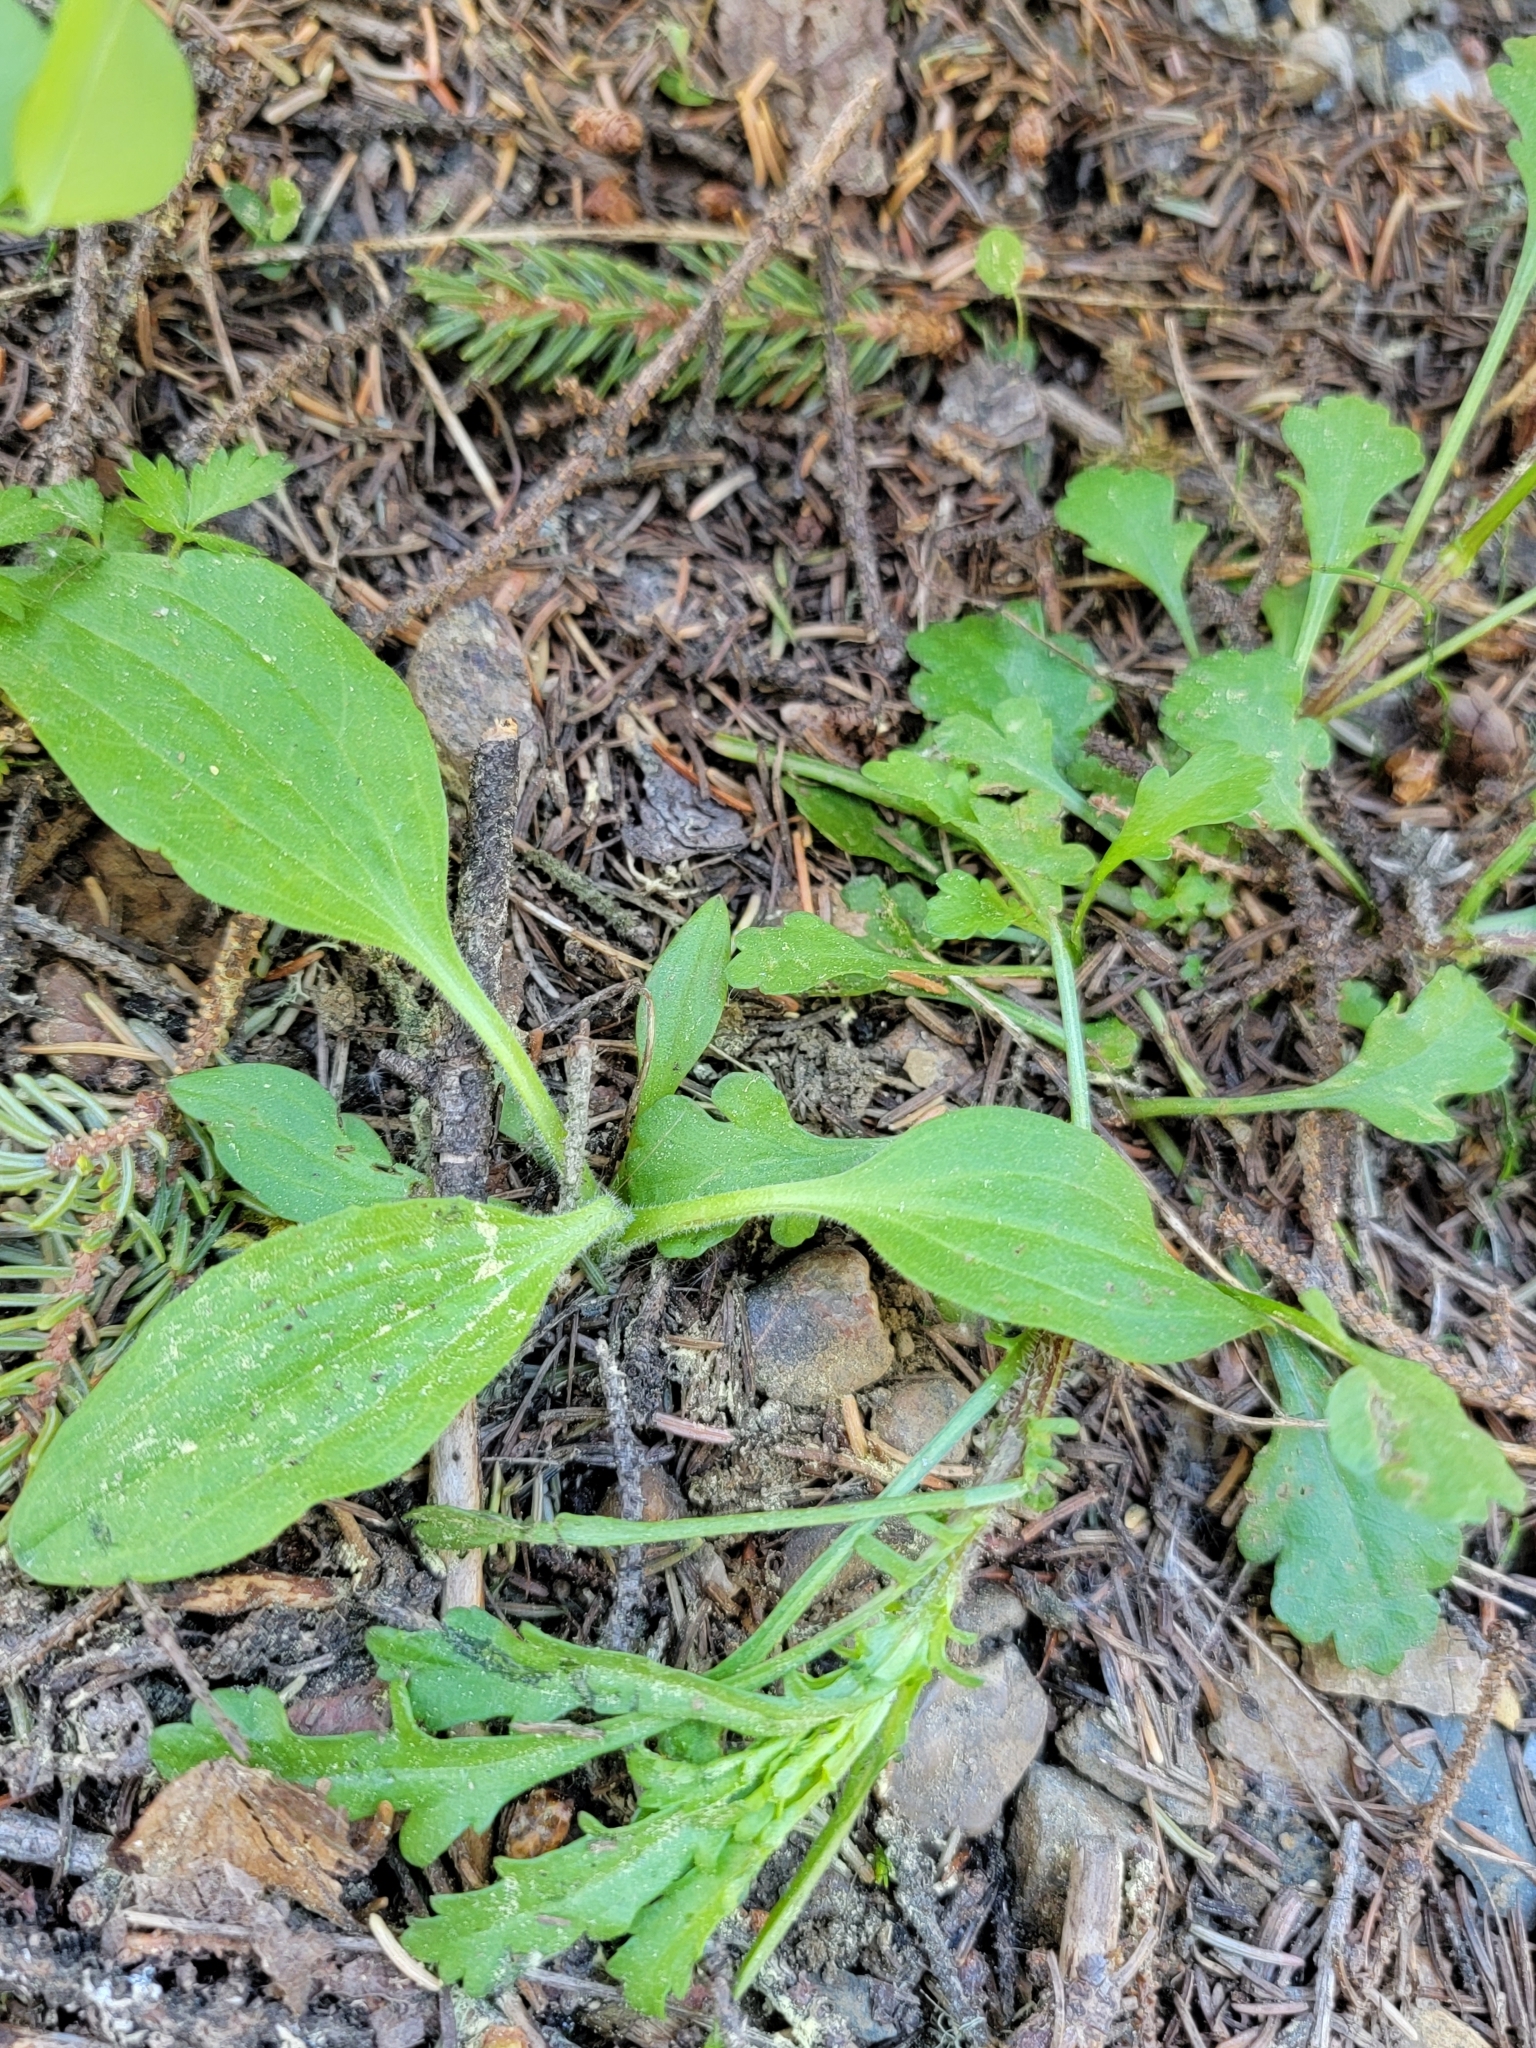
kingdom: Plantae
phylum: Tracheophyta
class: Magnoliopsida
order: Boraginales
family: Boraginaceae
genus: Mertensia
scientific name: Mertensia paniculata
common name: Panicled bluebells
